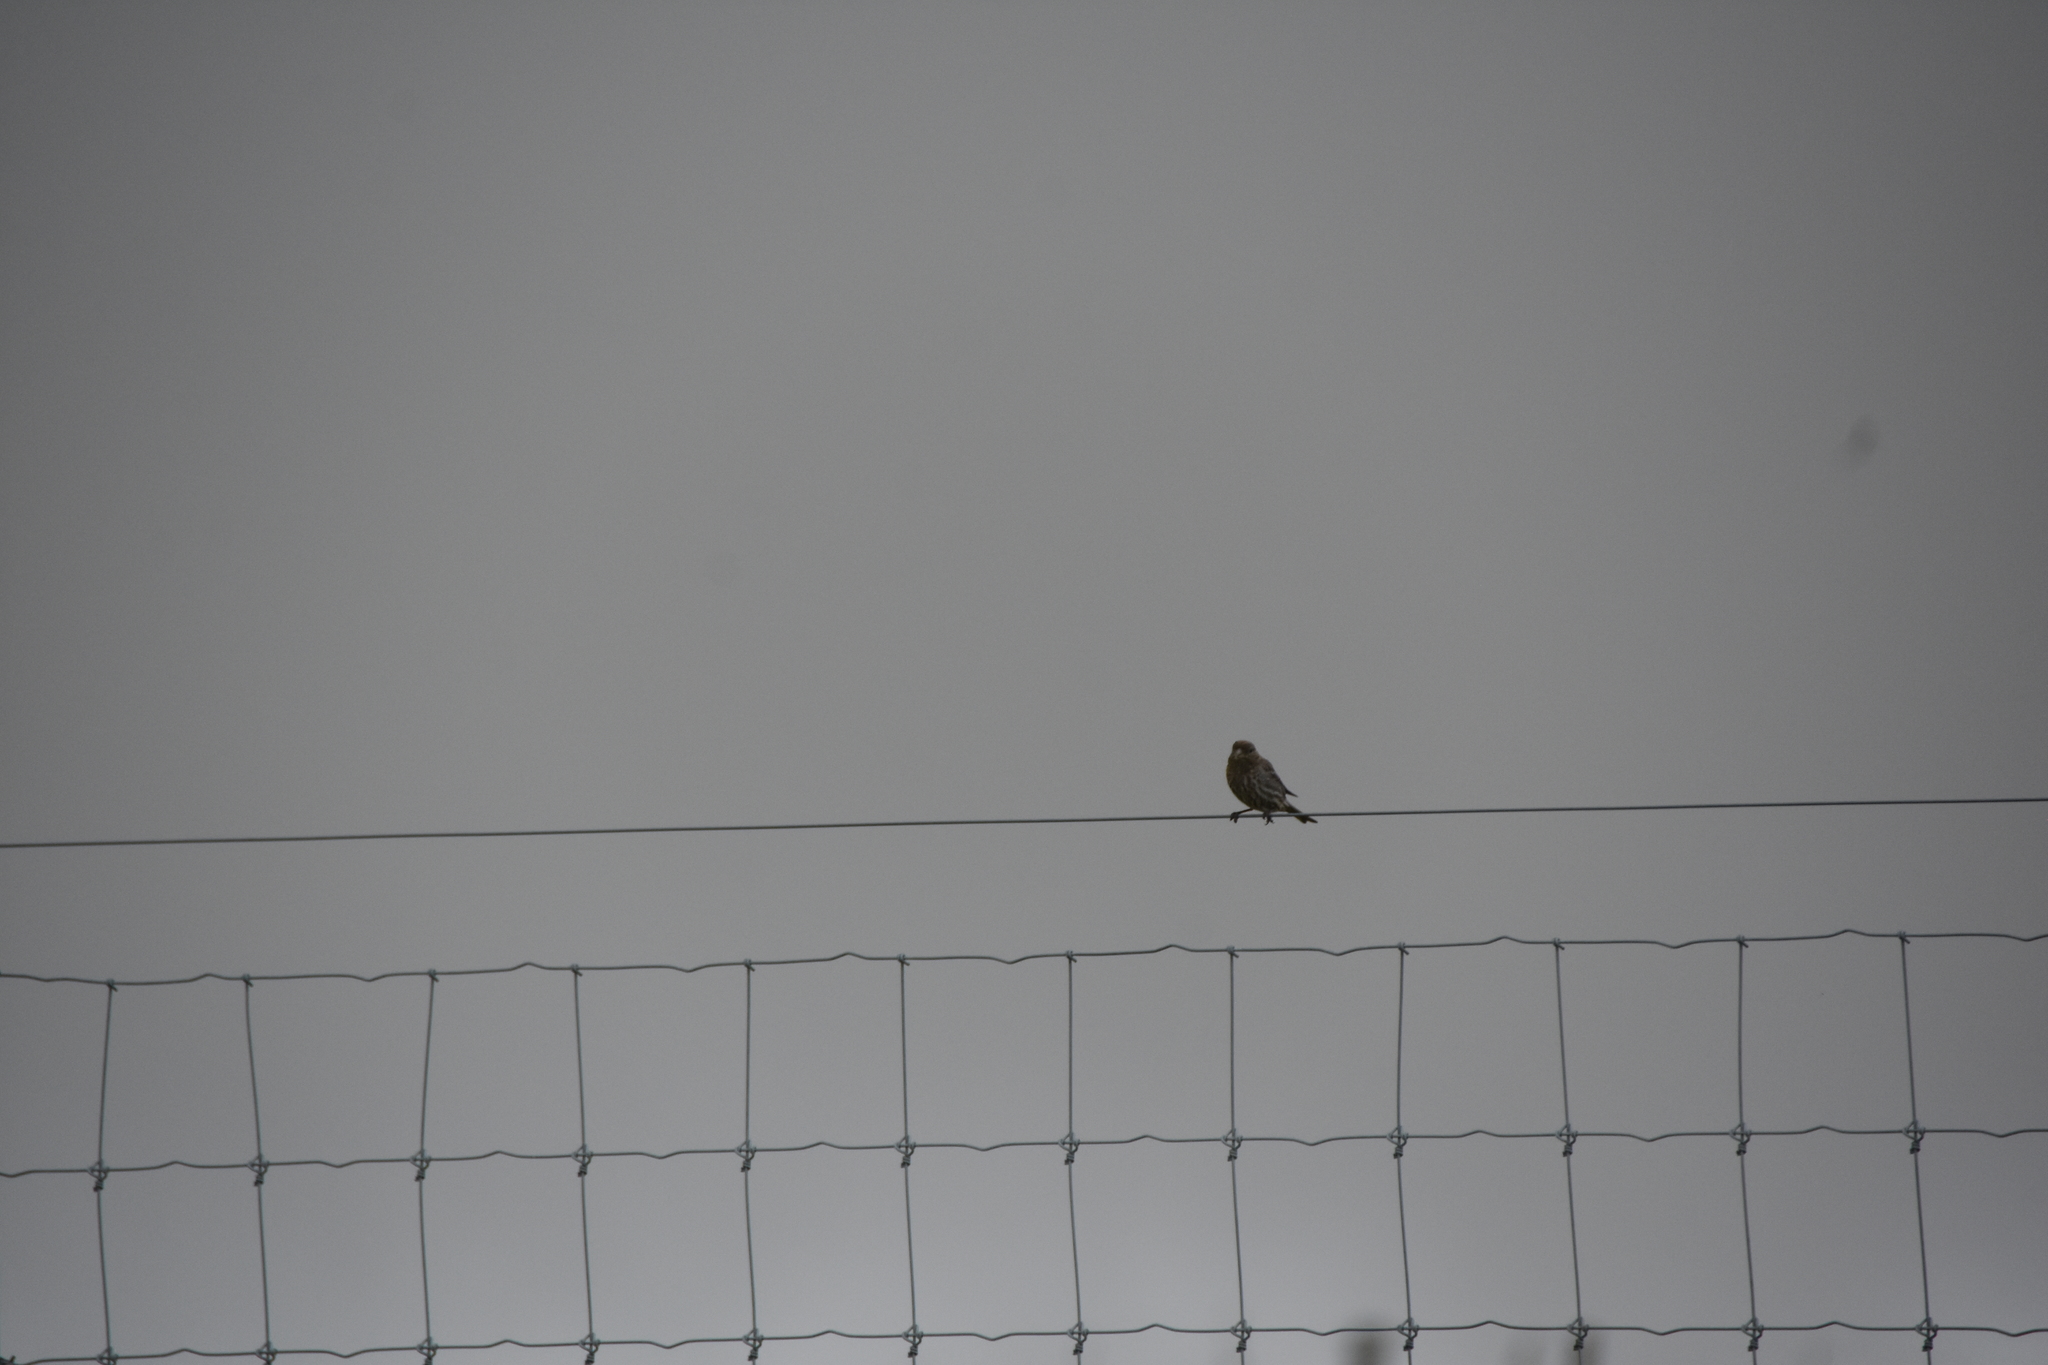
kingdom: Animalia
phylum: Chordata
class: Aves
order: Passeriformes
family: Fringillidae
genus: Haemorhous
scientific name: Haemorhous mexicanus
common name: House finch
